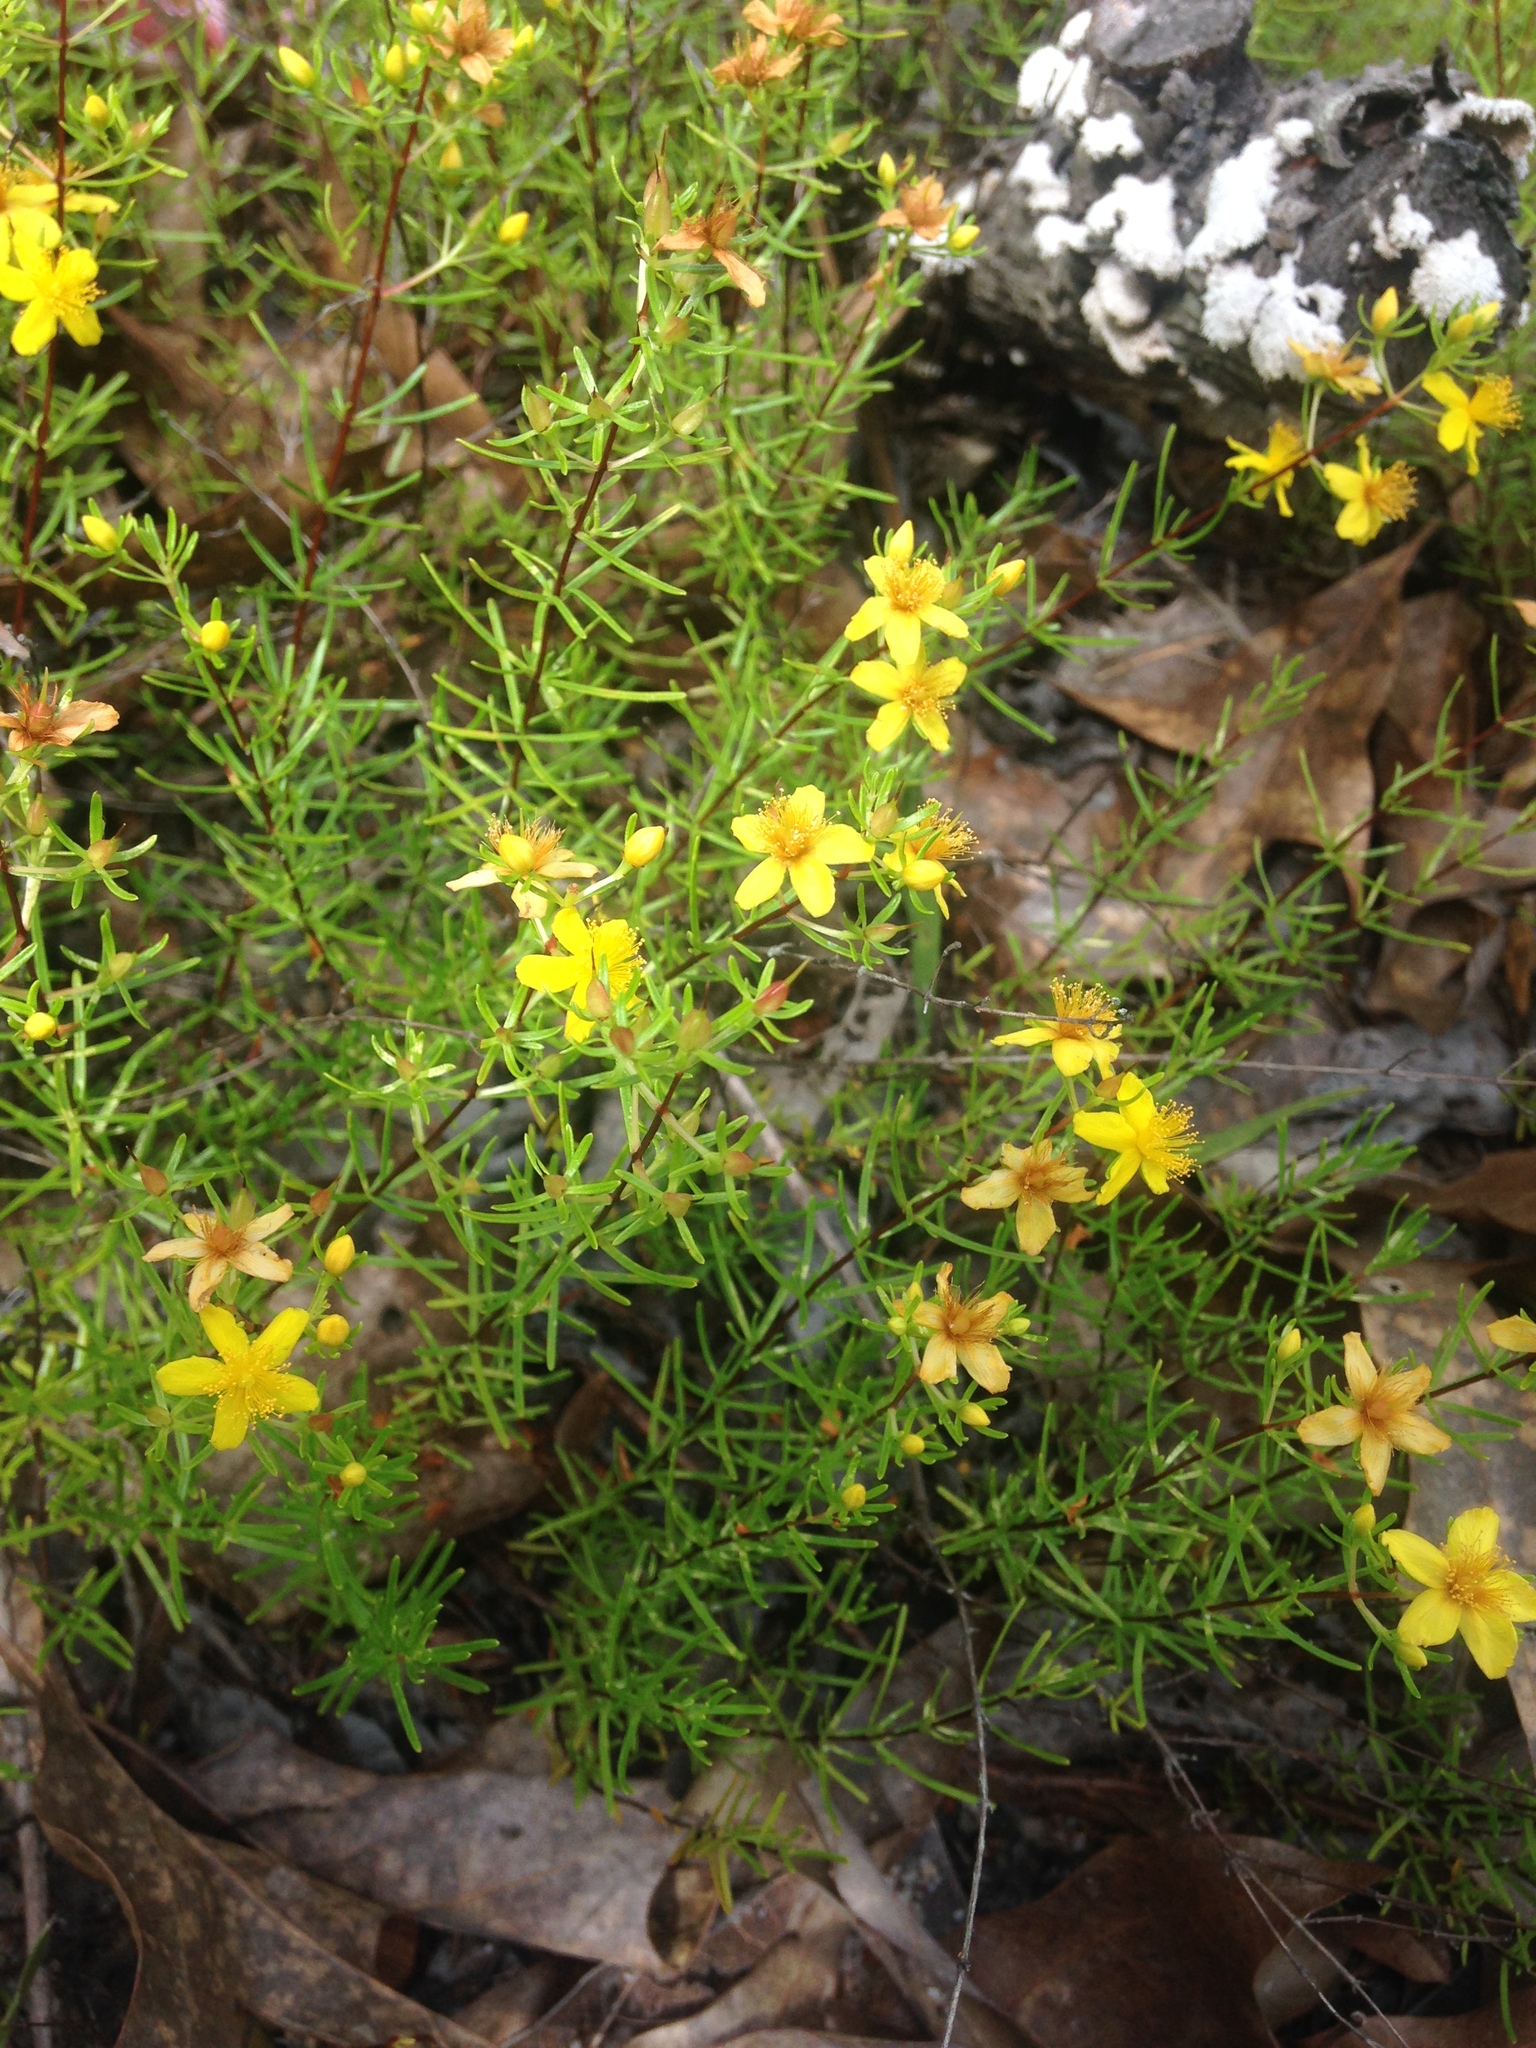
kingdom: Plantae
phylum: Tracheophyta
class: Magnoliopsida
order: Malpighiales
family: Hypericaceae
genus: Hypericum
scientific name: Hypericum lloydii
